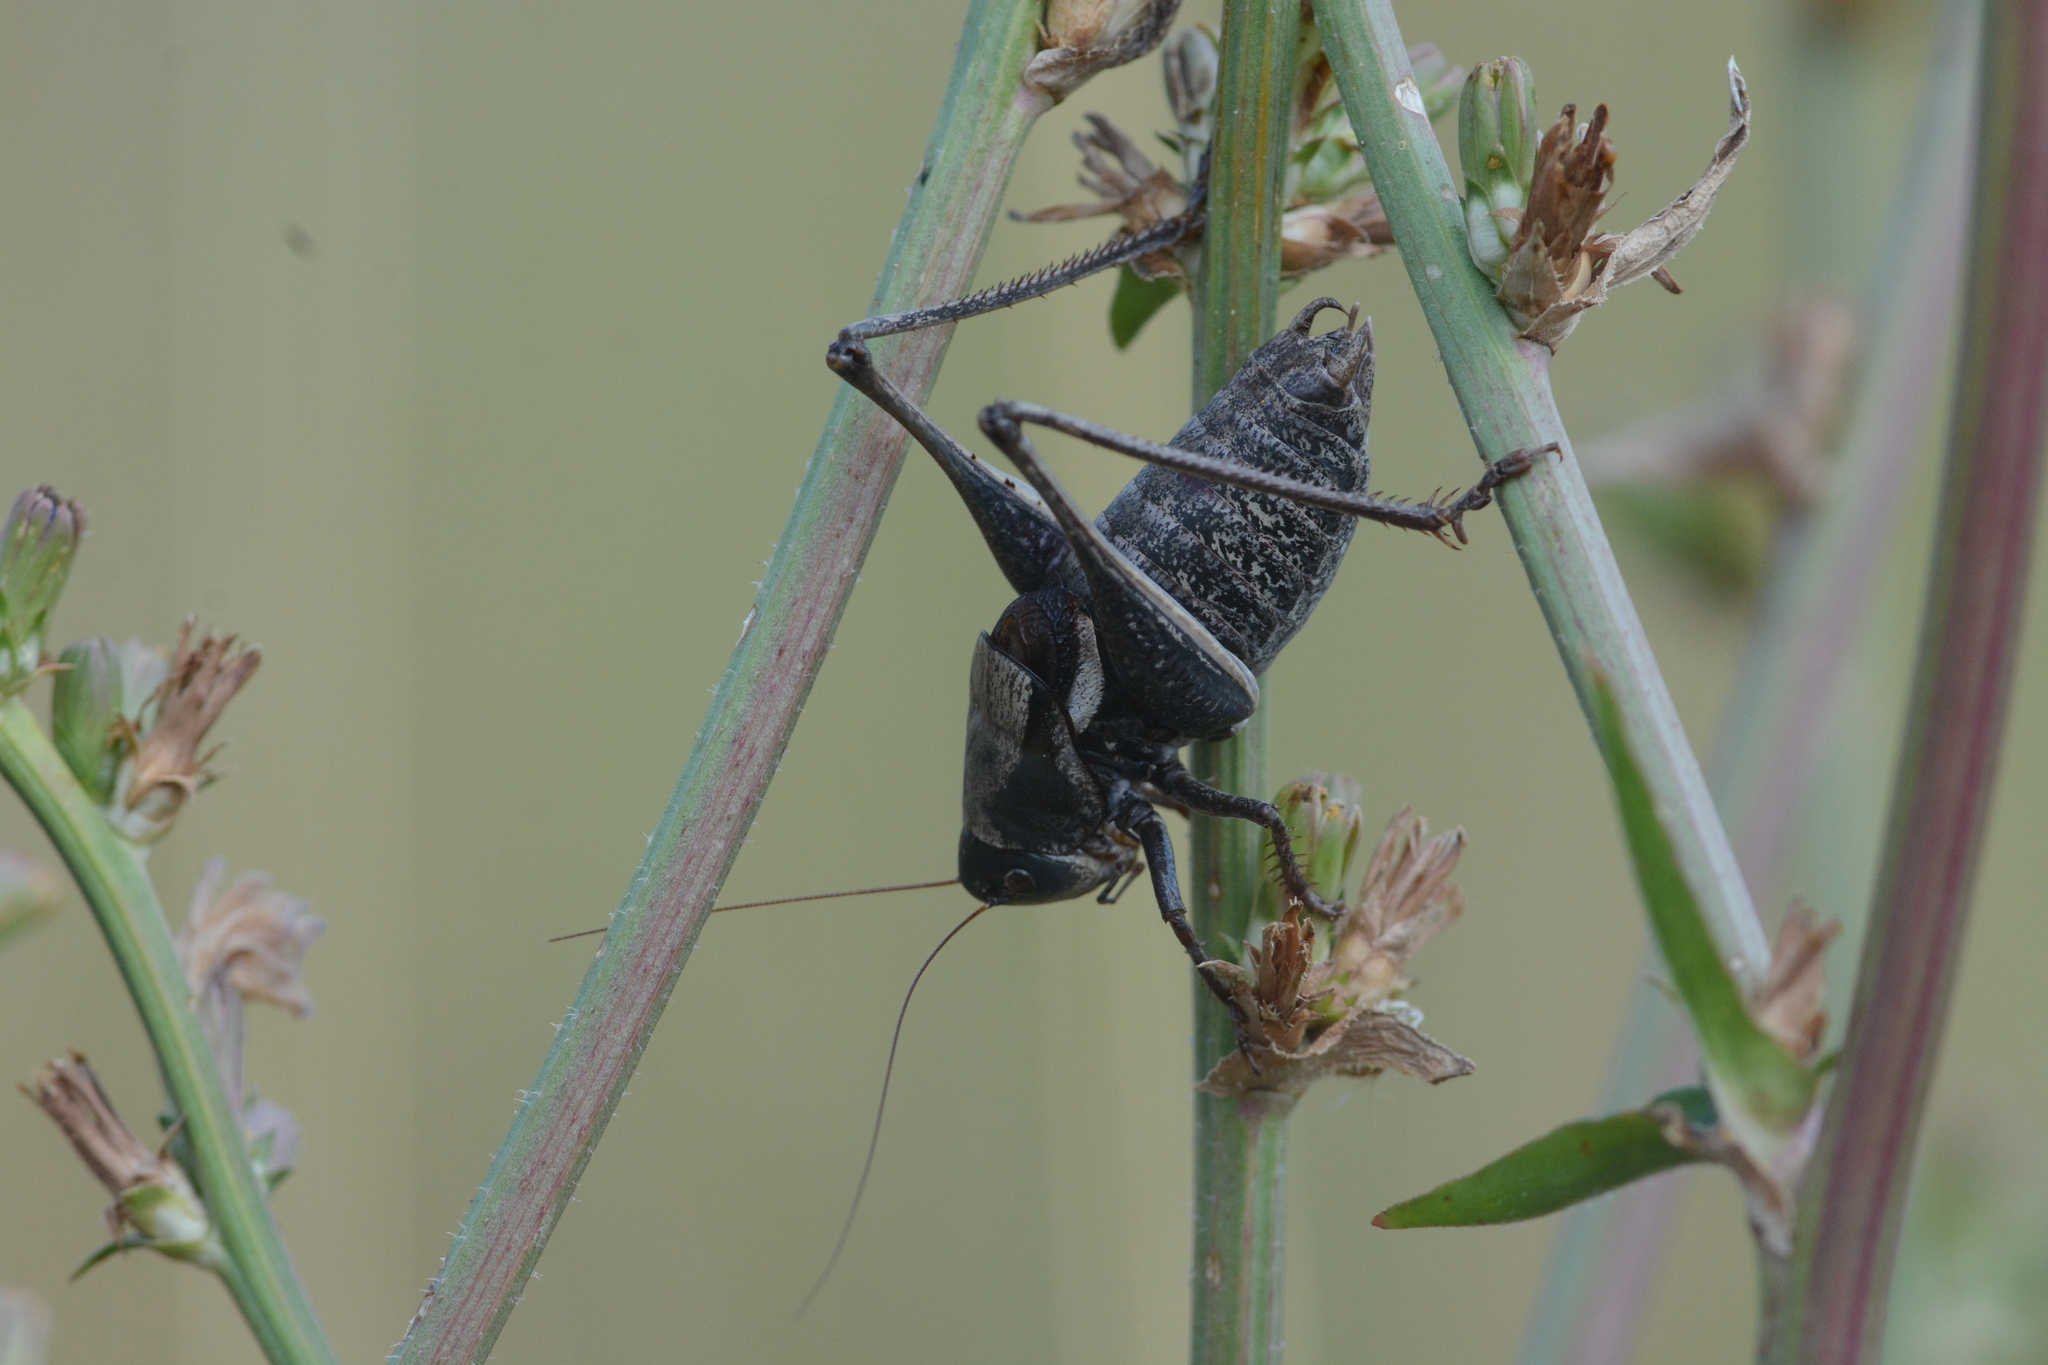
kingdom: Animalia
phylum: Arthropoda
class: Insecta
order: Orthoptera
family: Tettigoniidae
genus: Anabrus
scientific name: Anabrus longipes
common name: Long-legged anabrus
